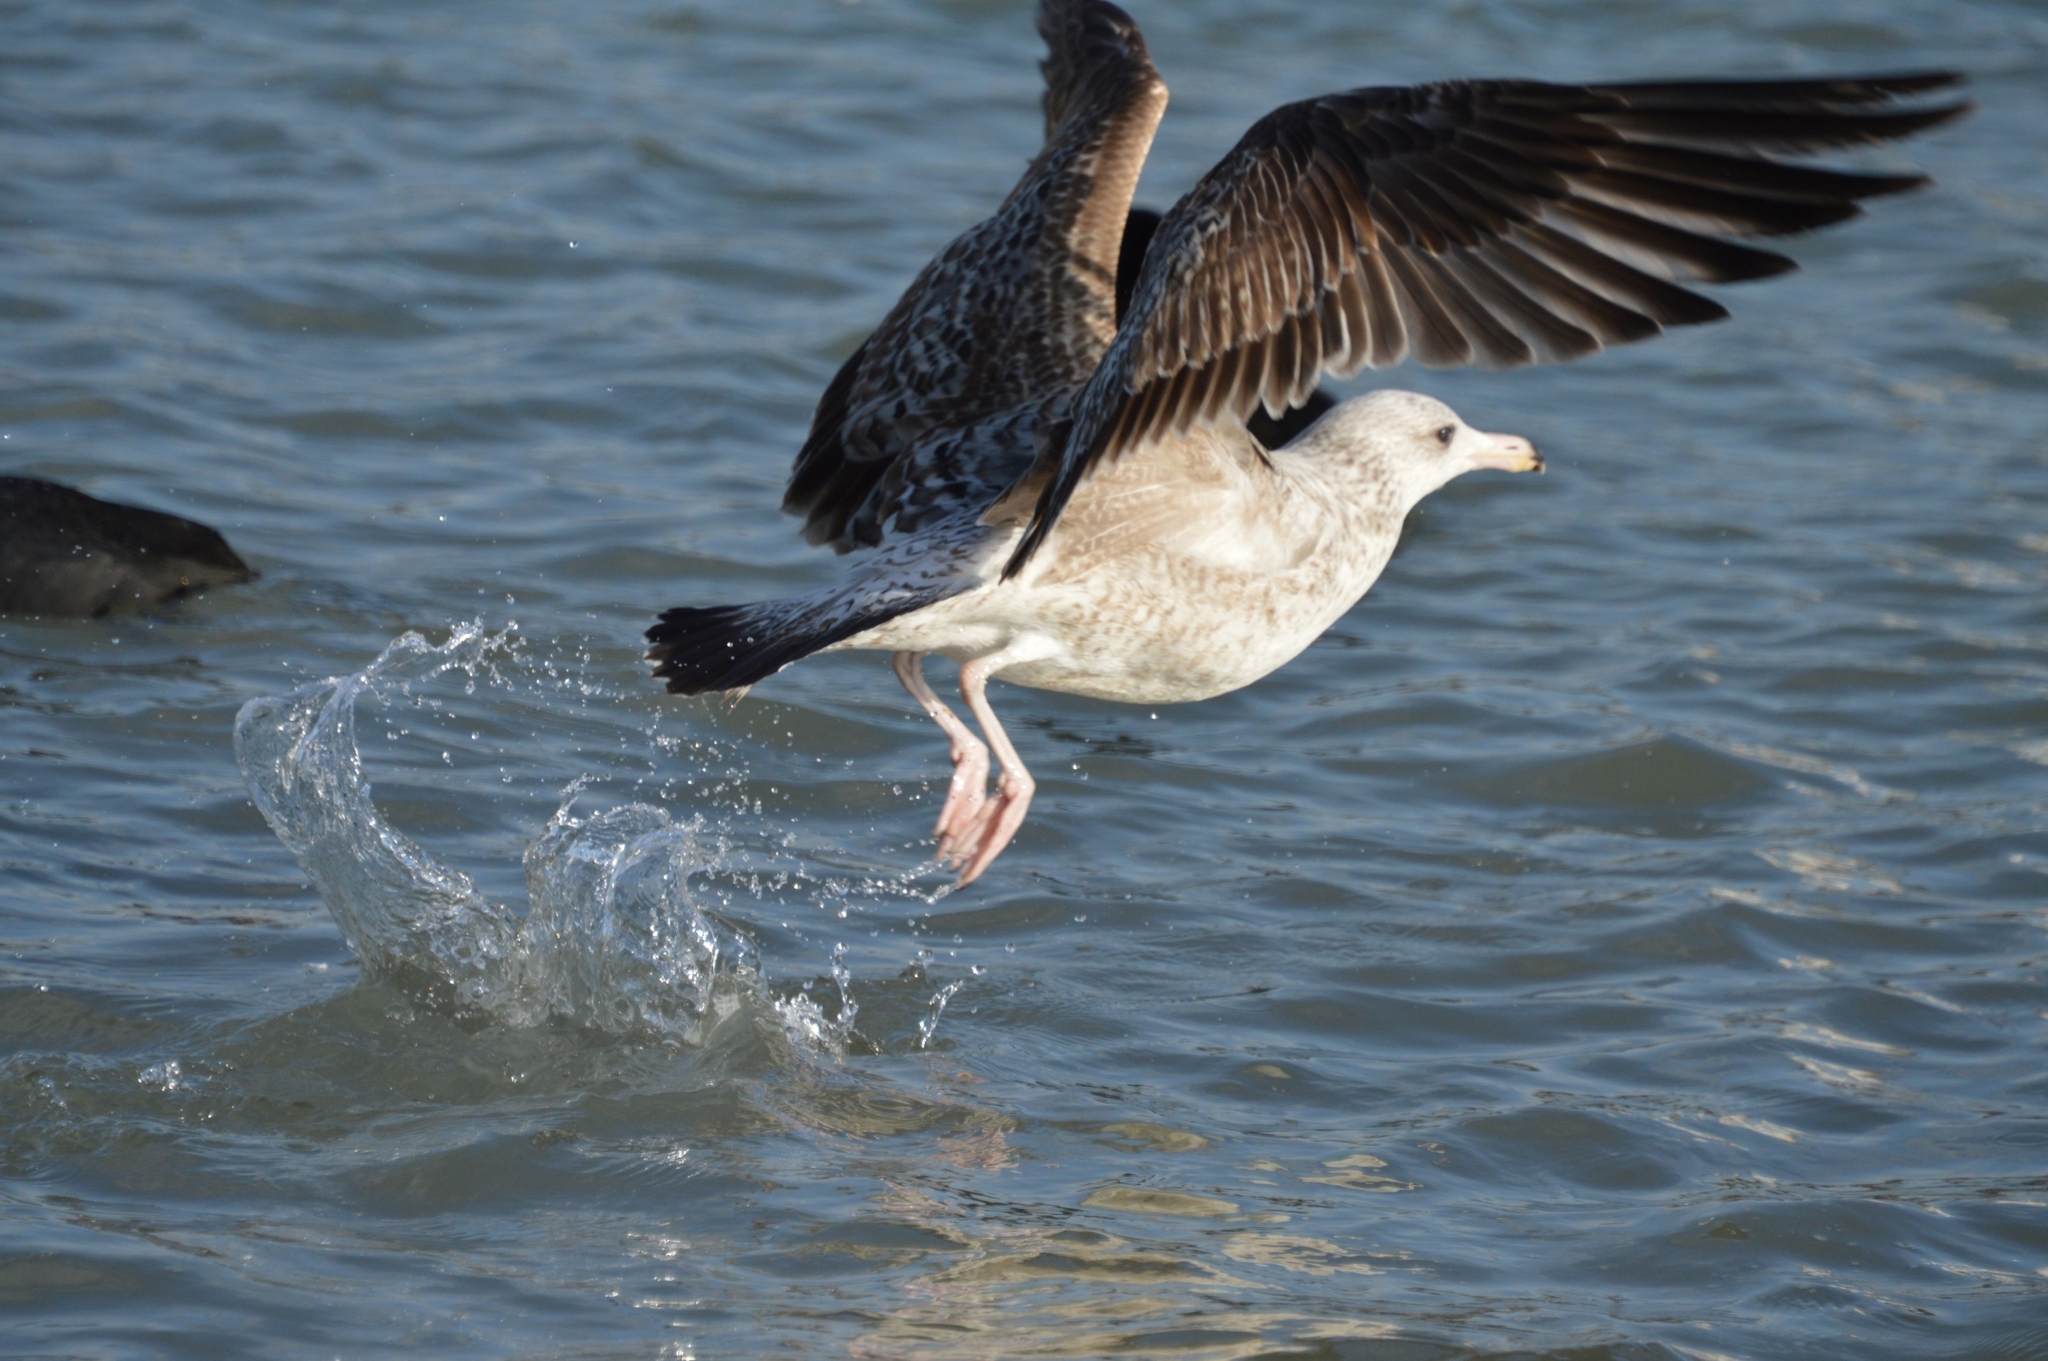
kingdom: Animalia
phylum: Chordata
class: Aves
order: Charadriiformes
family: Laridae
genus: Larus
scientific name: Larus michahellis
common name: Yellow-legged gull
